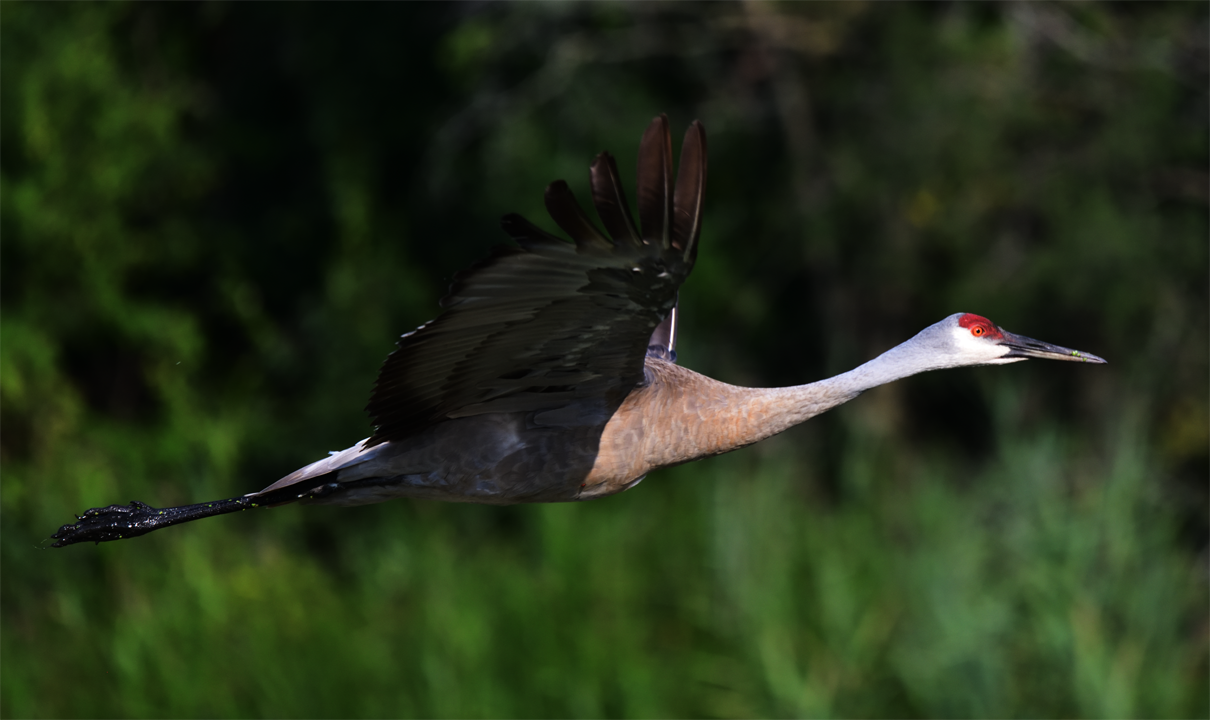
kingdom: Animalia
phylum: Chordata
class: Aves
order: Gruiformes
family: Gruidae
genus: Grus
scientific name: Grus canadensis
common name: Sandhill crane
